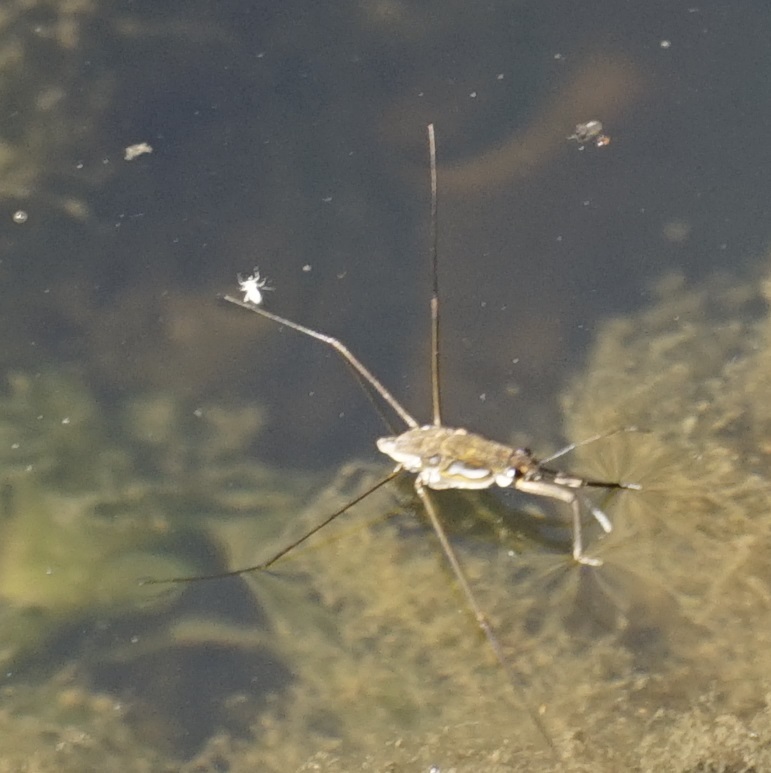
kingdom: Animalia
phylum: Arthropoda
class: Insecta
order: Hemiptera
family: Gerridae
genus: Tenagogerris
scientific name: Tenagogerris euphrosyne
